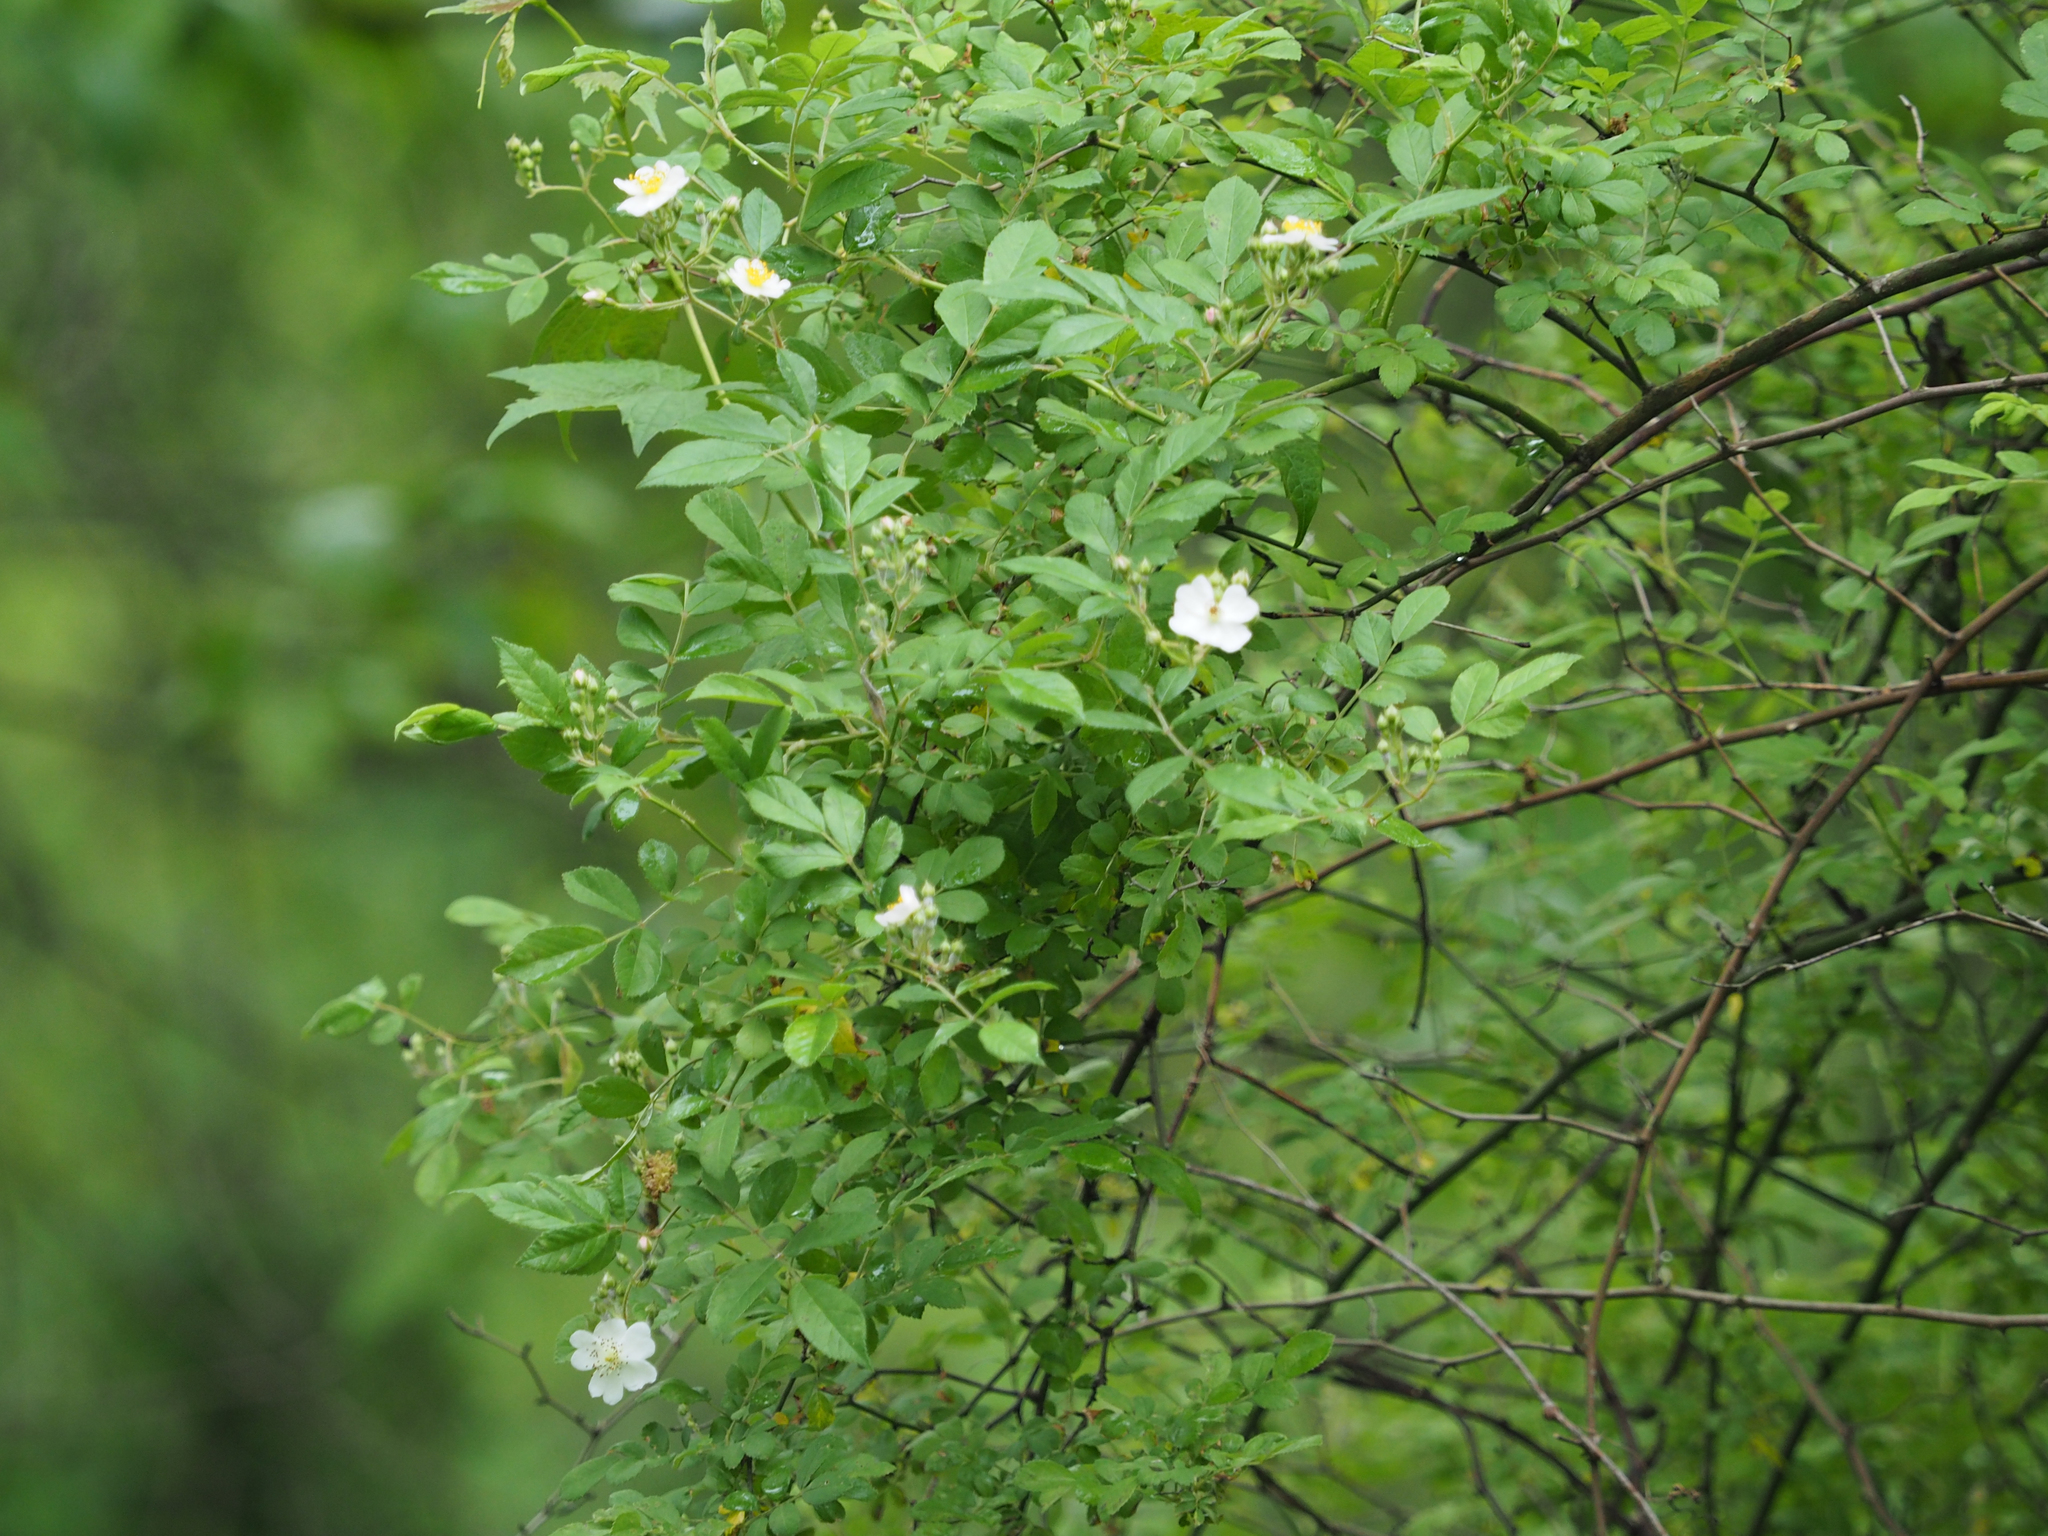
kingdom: Plantae
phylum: Tracheophyta
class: Magnoliopsida
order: Rosales
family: Rosaceae
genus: Rosa
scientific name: Rosa multiflora
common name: Multiflora rose
